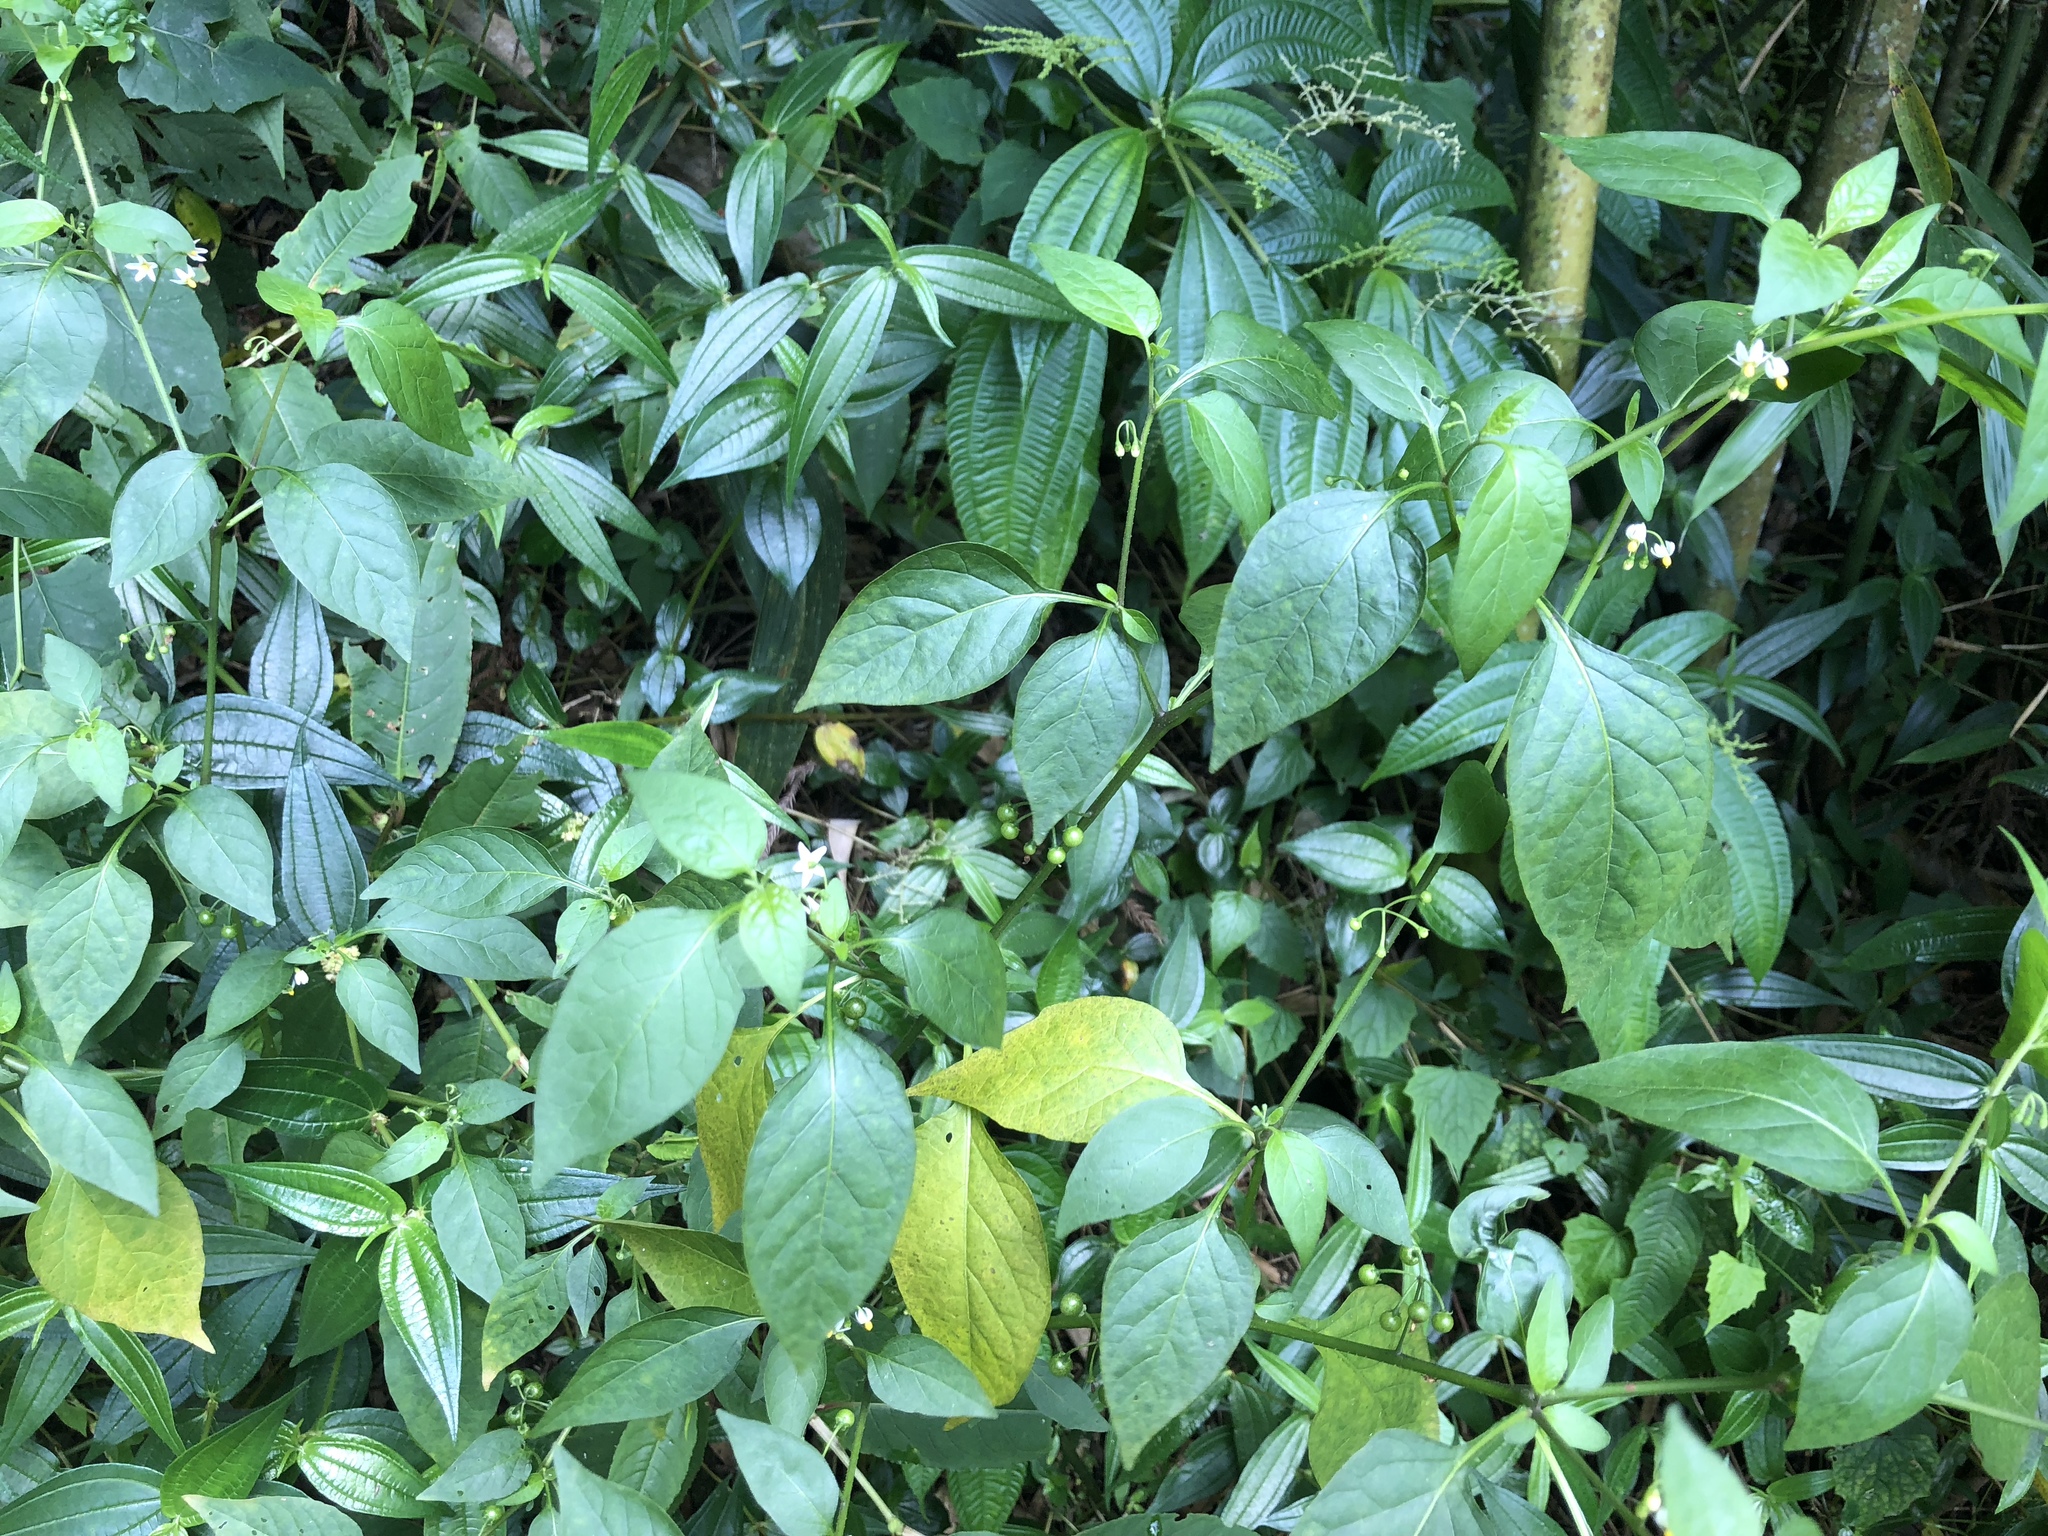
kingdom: Plantae
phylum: Tracheophyta
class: Magnoliopsida
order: Solanales
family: Solanaceae
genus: Solanum
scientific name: Solanum americanum
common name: American black nightshade
